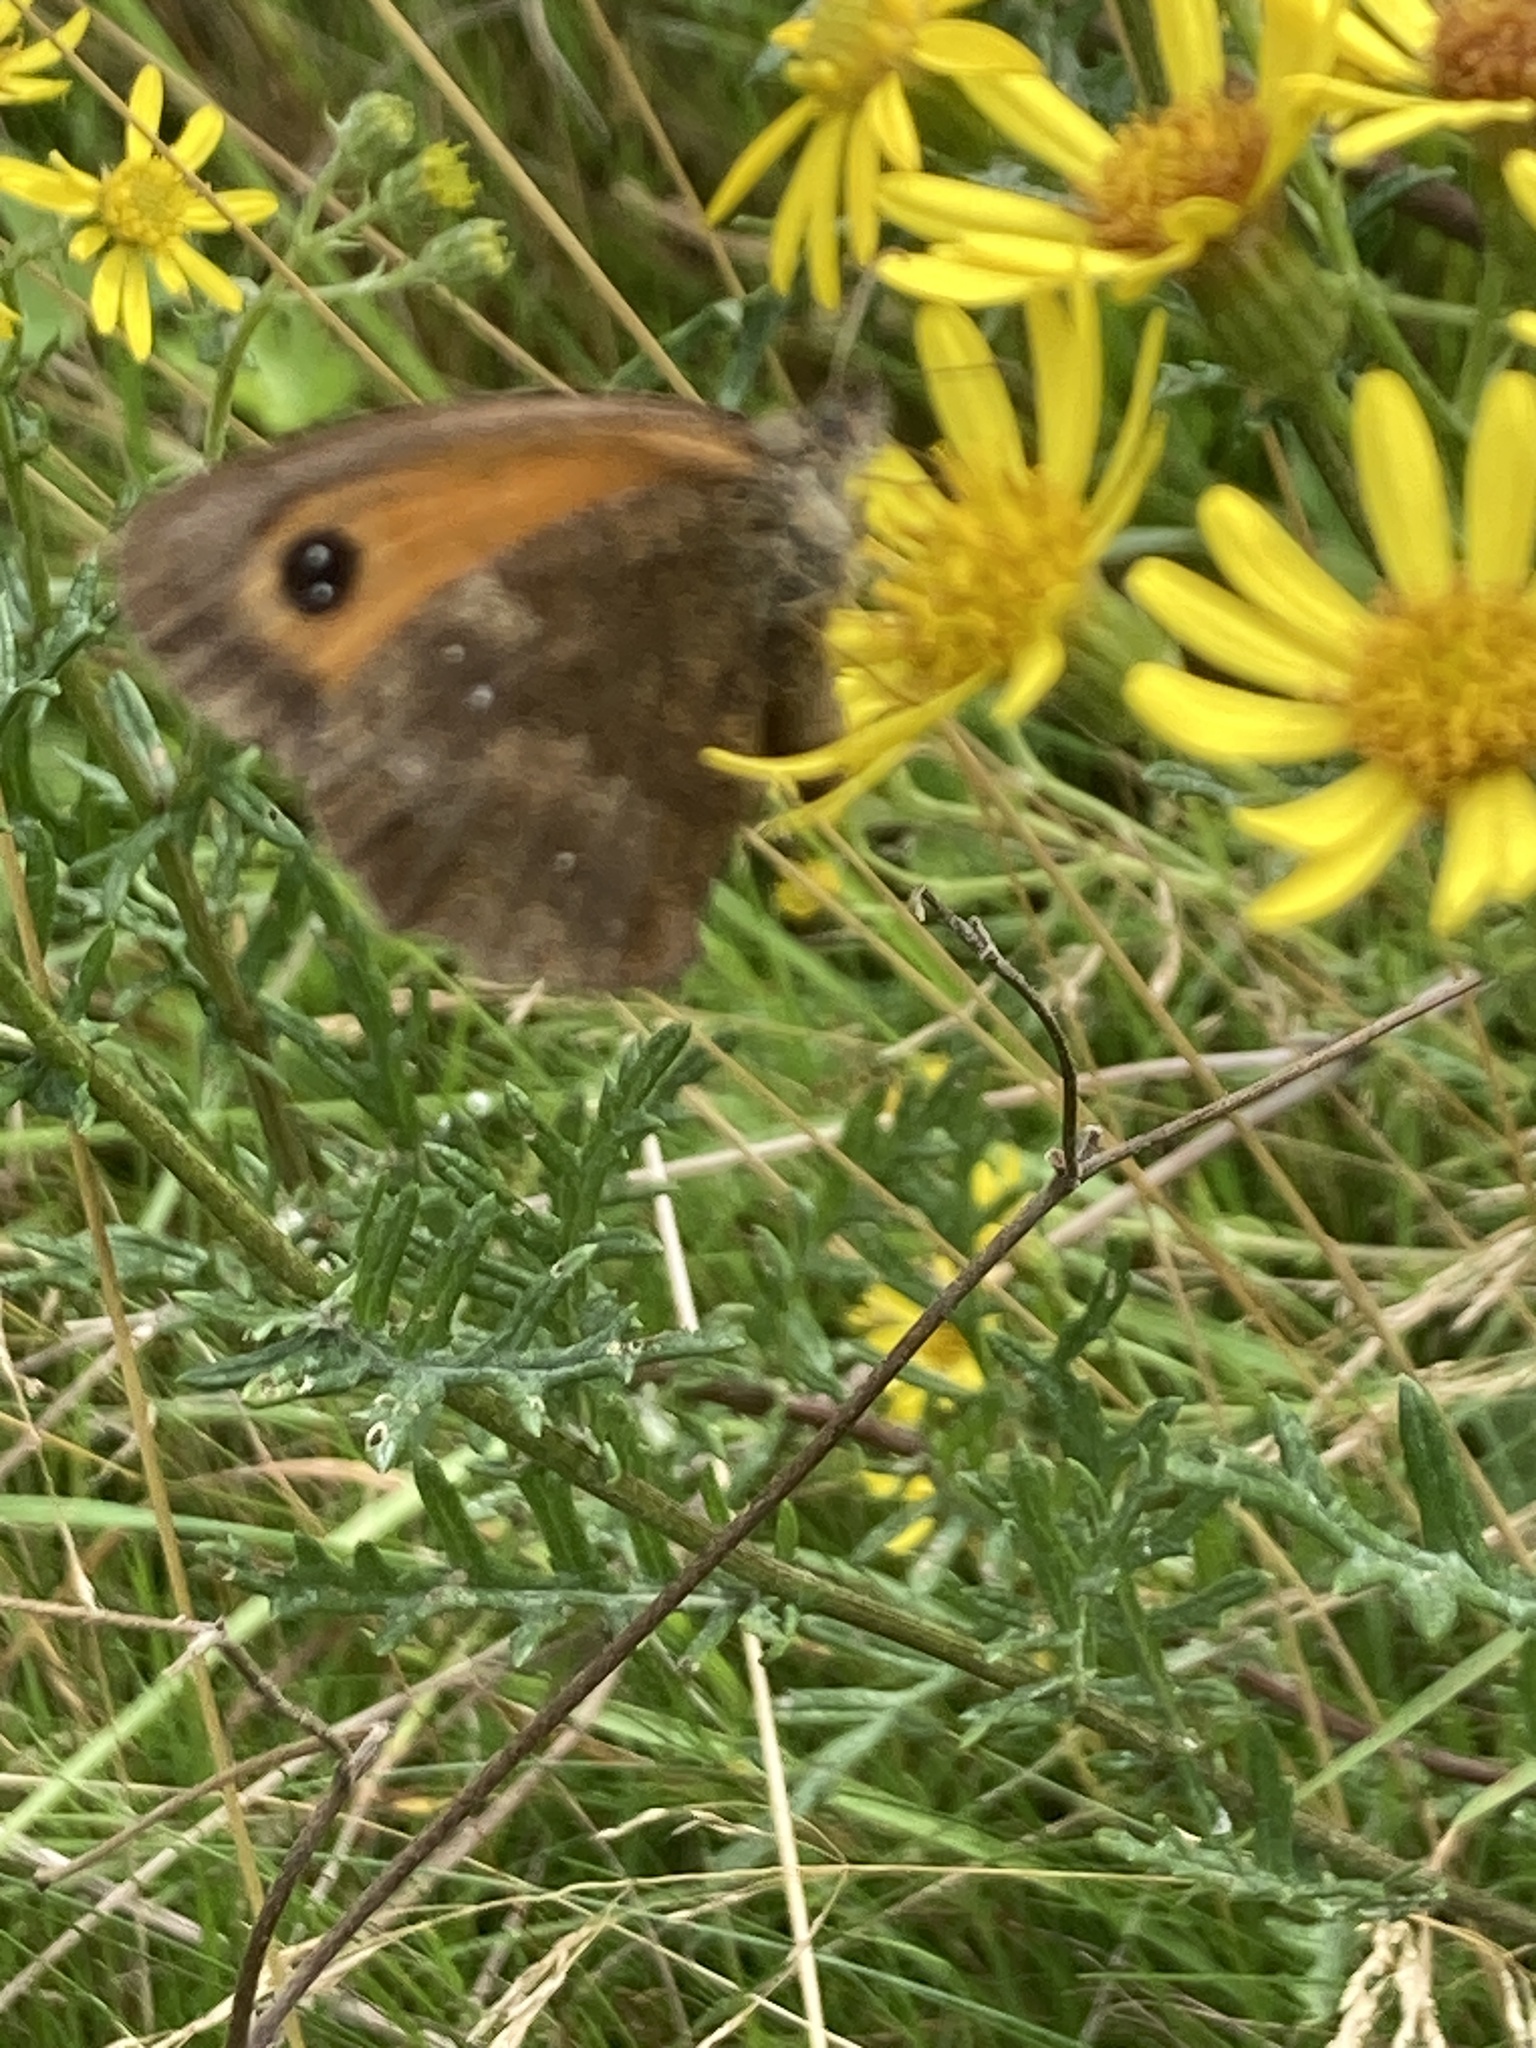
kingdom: Animalia
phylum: Arthropoda
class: Insecta
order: Lepidoptera
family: Nymphalidae
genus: Pyronia
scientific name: Pyronia tithonus
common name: Gatekeeper
